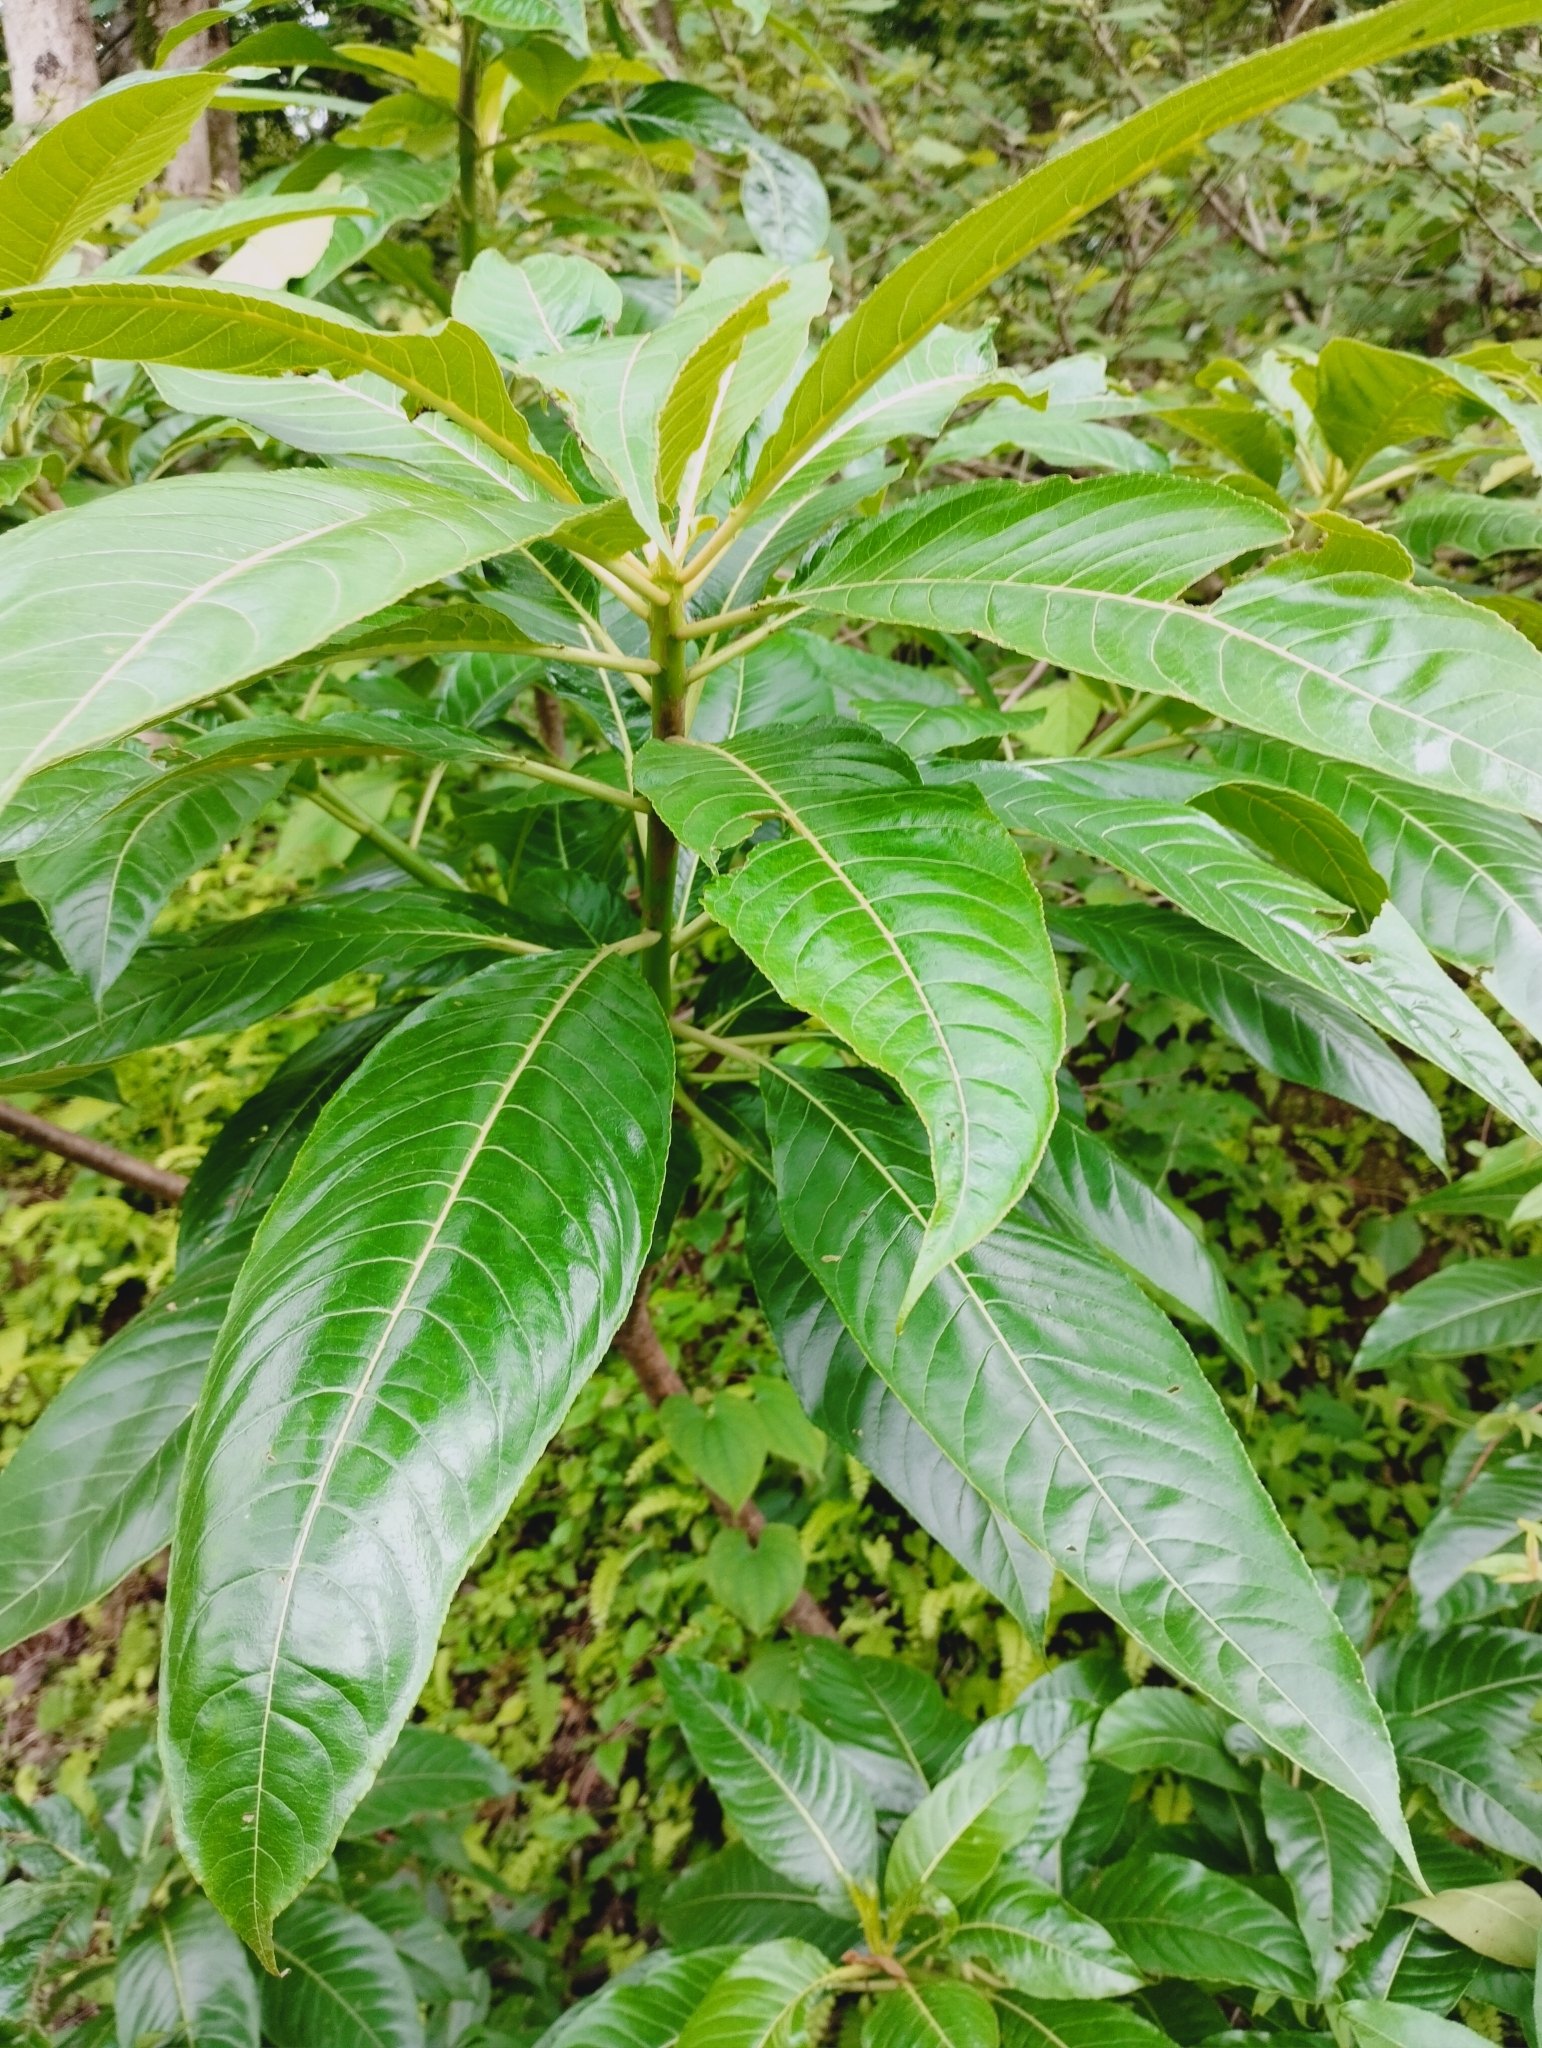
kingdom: Plantae
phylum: Tracheophyta
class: Magnoliopsida
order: Malpighiales
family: Euphorbiaceae
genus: Falconeria
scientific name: Falconeria insignis
